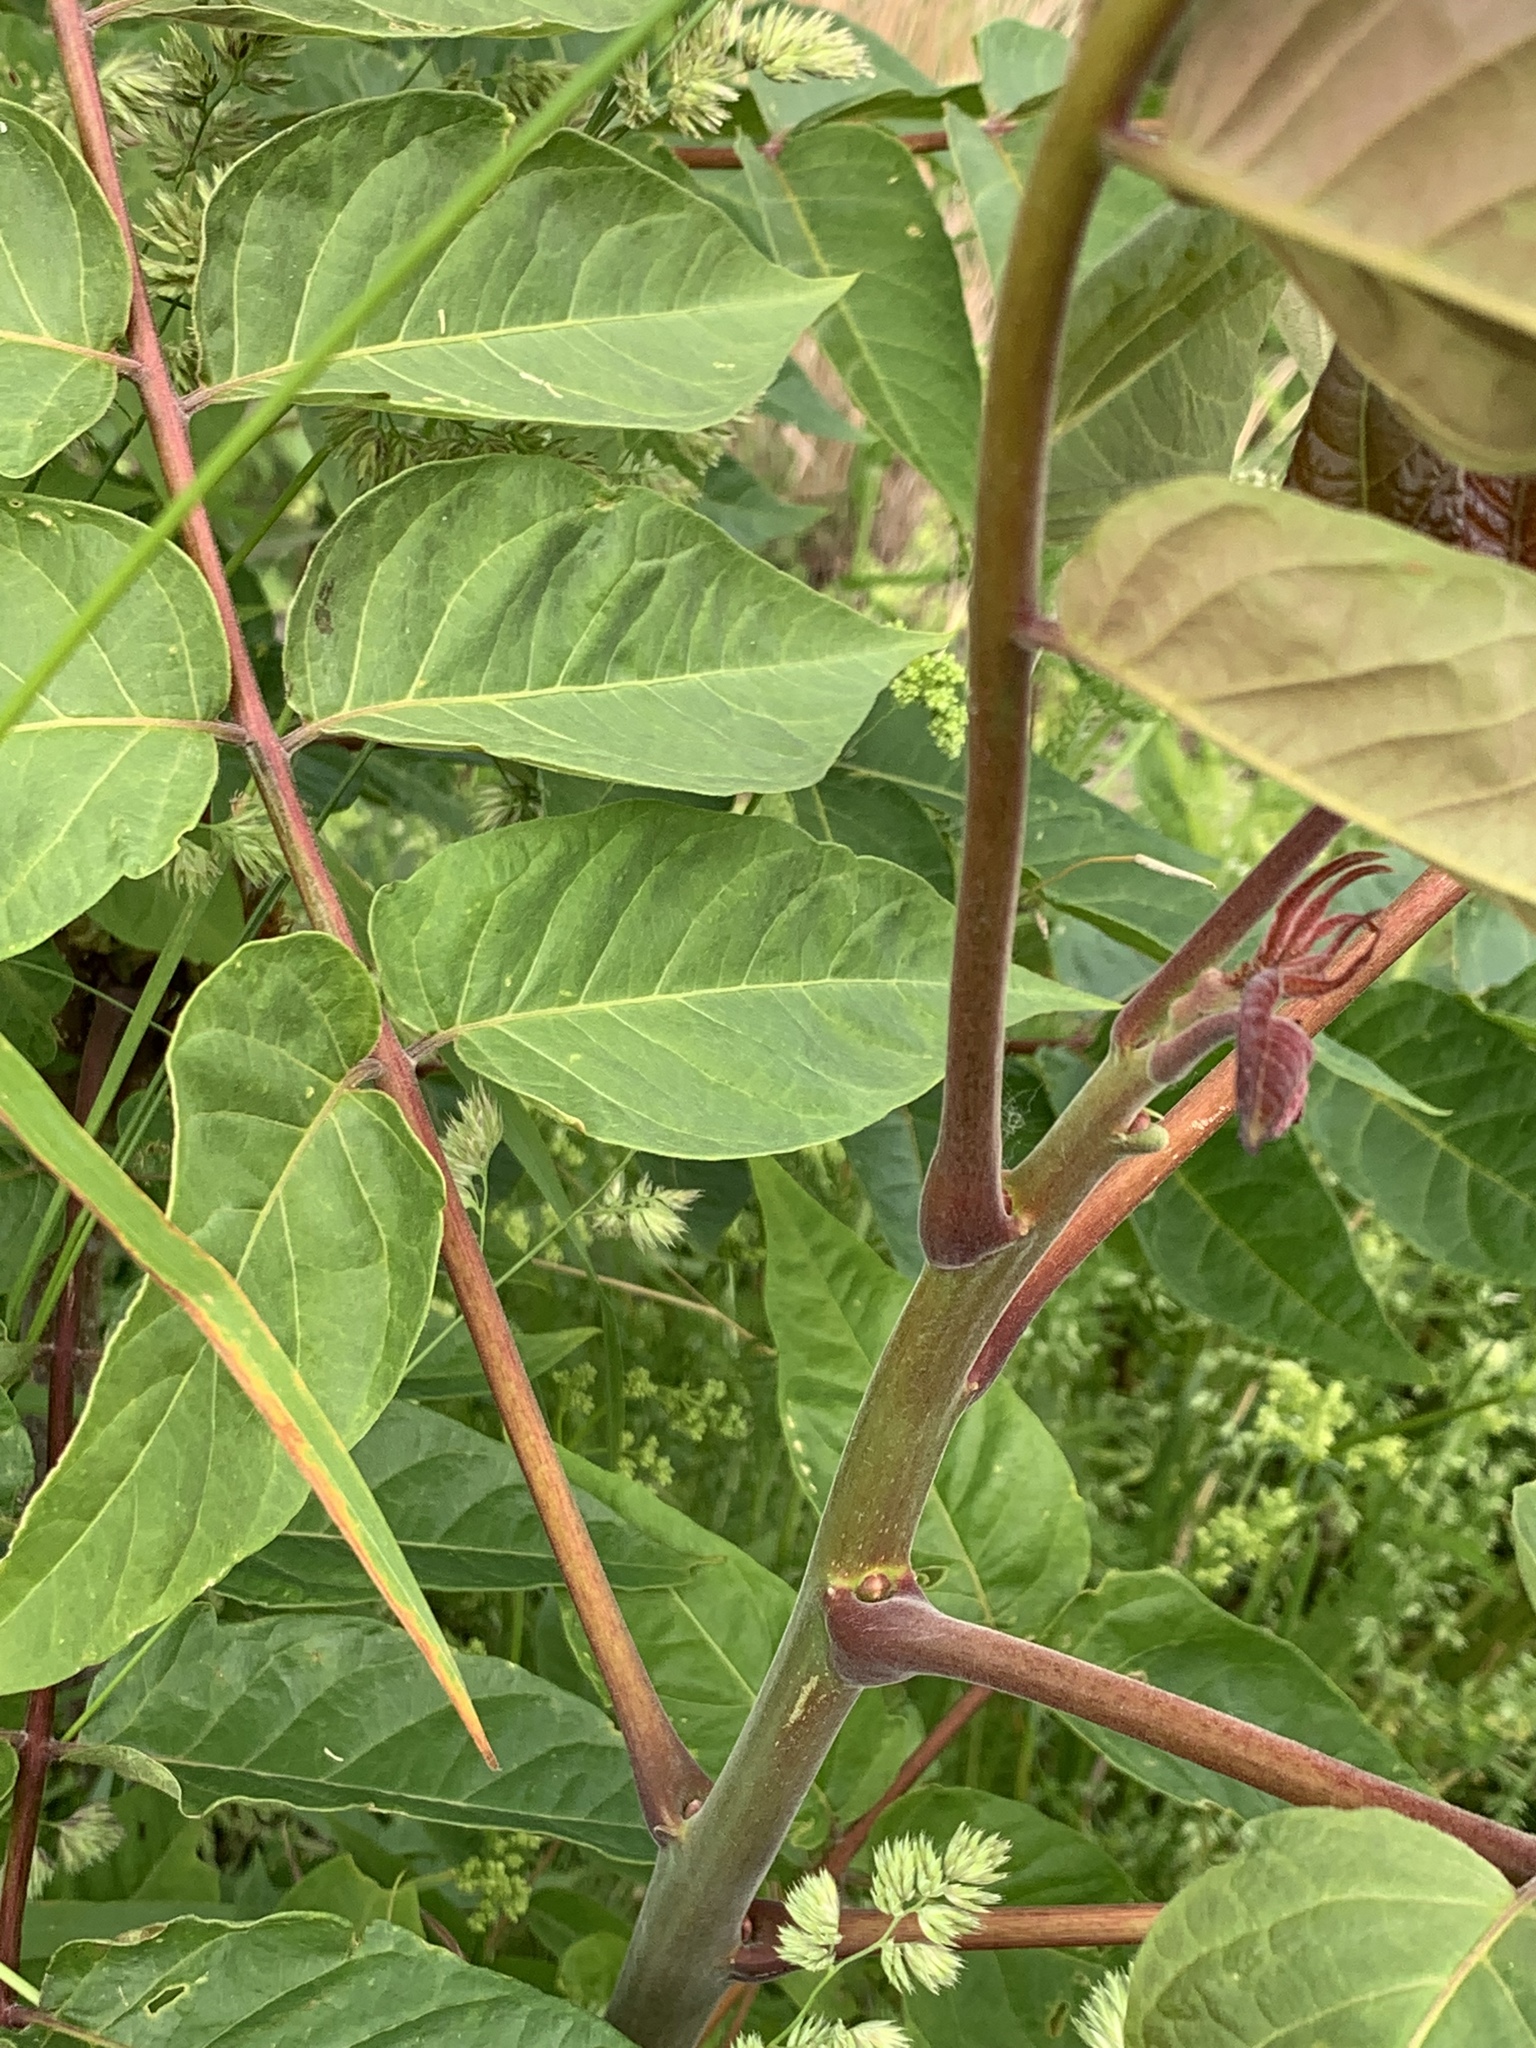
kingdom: Plantae
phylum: Tracheophyta
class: Magnoliopsida
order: Sapindales
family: Simaroubaceae
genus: Ailanthus
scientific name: Ailanthus altissima
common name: Tree-of-heaven
